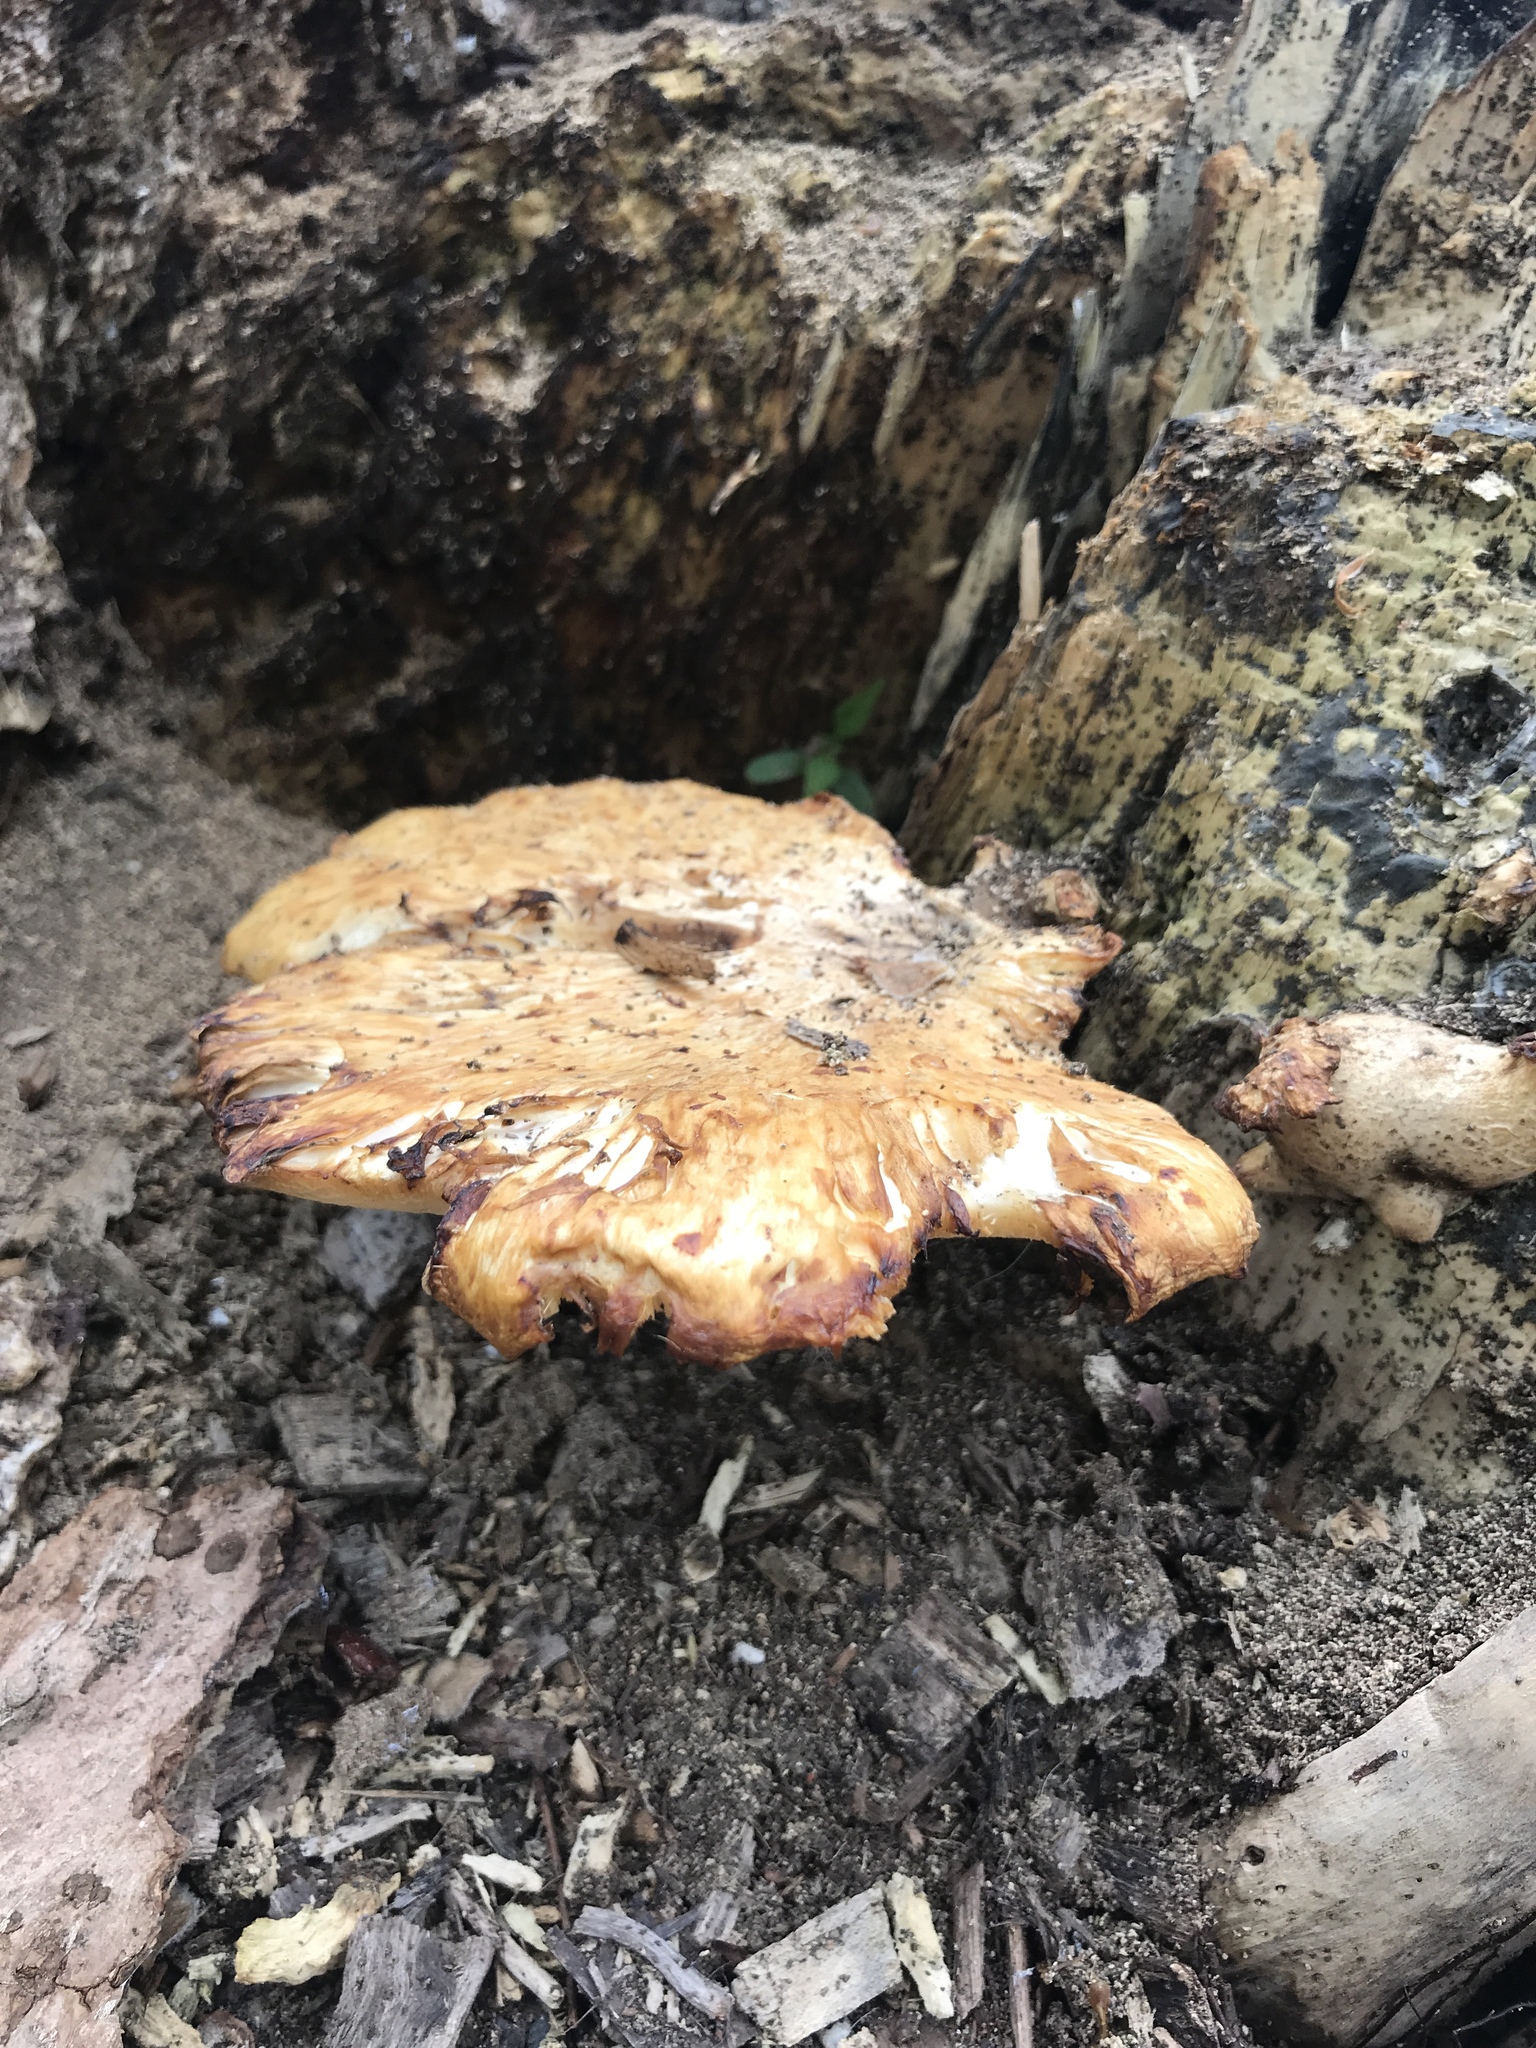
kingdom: Fungi
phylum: Basidiomycota
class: Agaricomycetes
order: Polyporales
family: Polyporaceae
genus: Cerioporus
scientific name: Cerioporus squamosus
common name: Dryad's saddle
